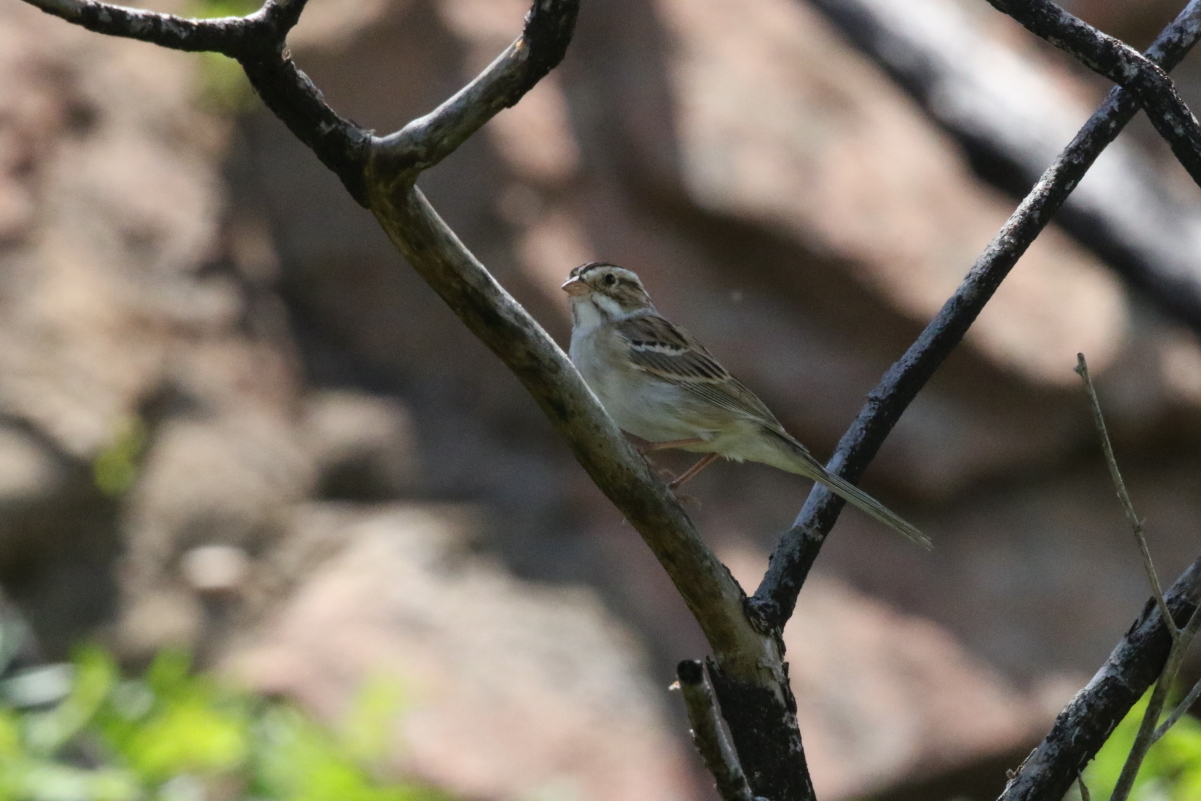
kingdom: Animalia
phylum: Chordata
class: Aves
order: Passeriformes
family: Passerellidae
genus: Spizella
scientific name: Spizella pallida
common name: Clay-colored sparrow
